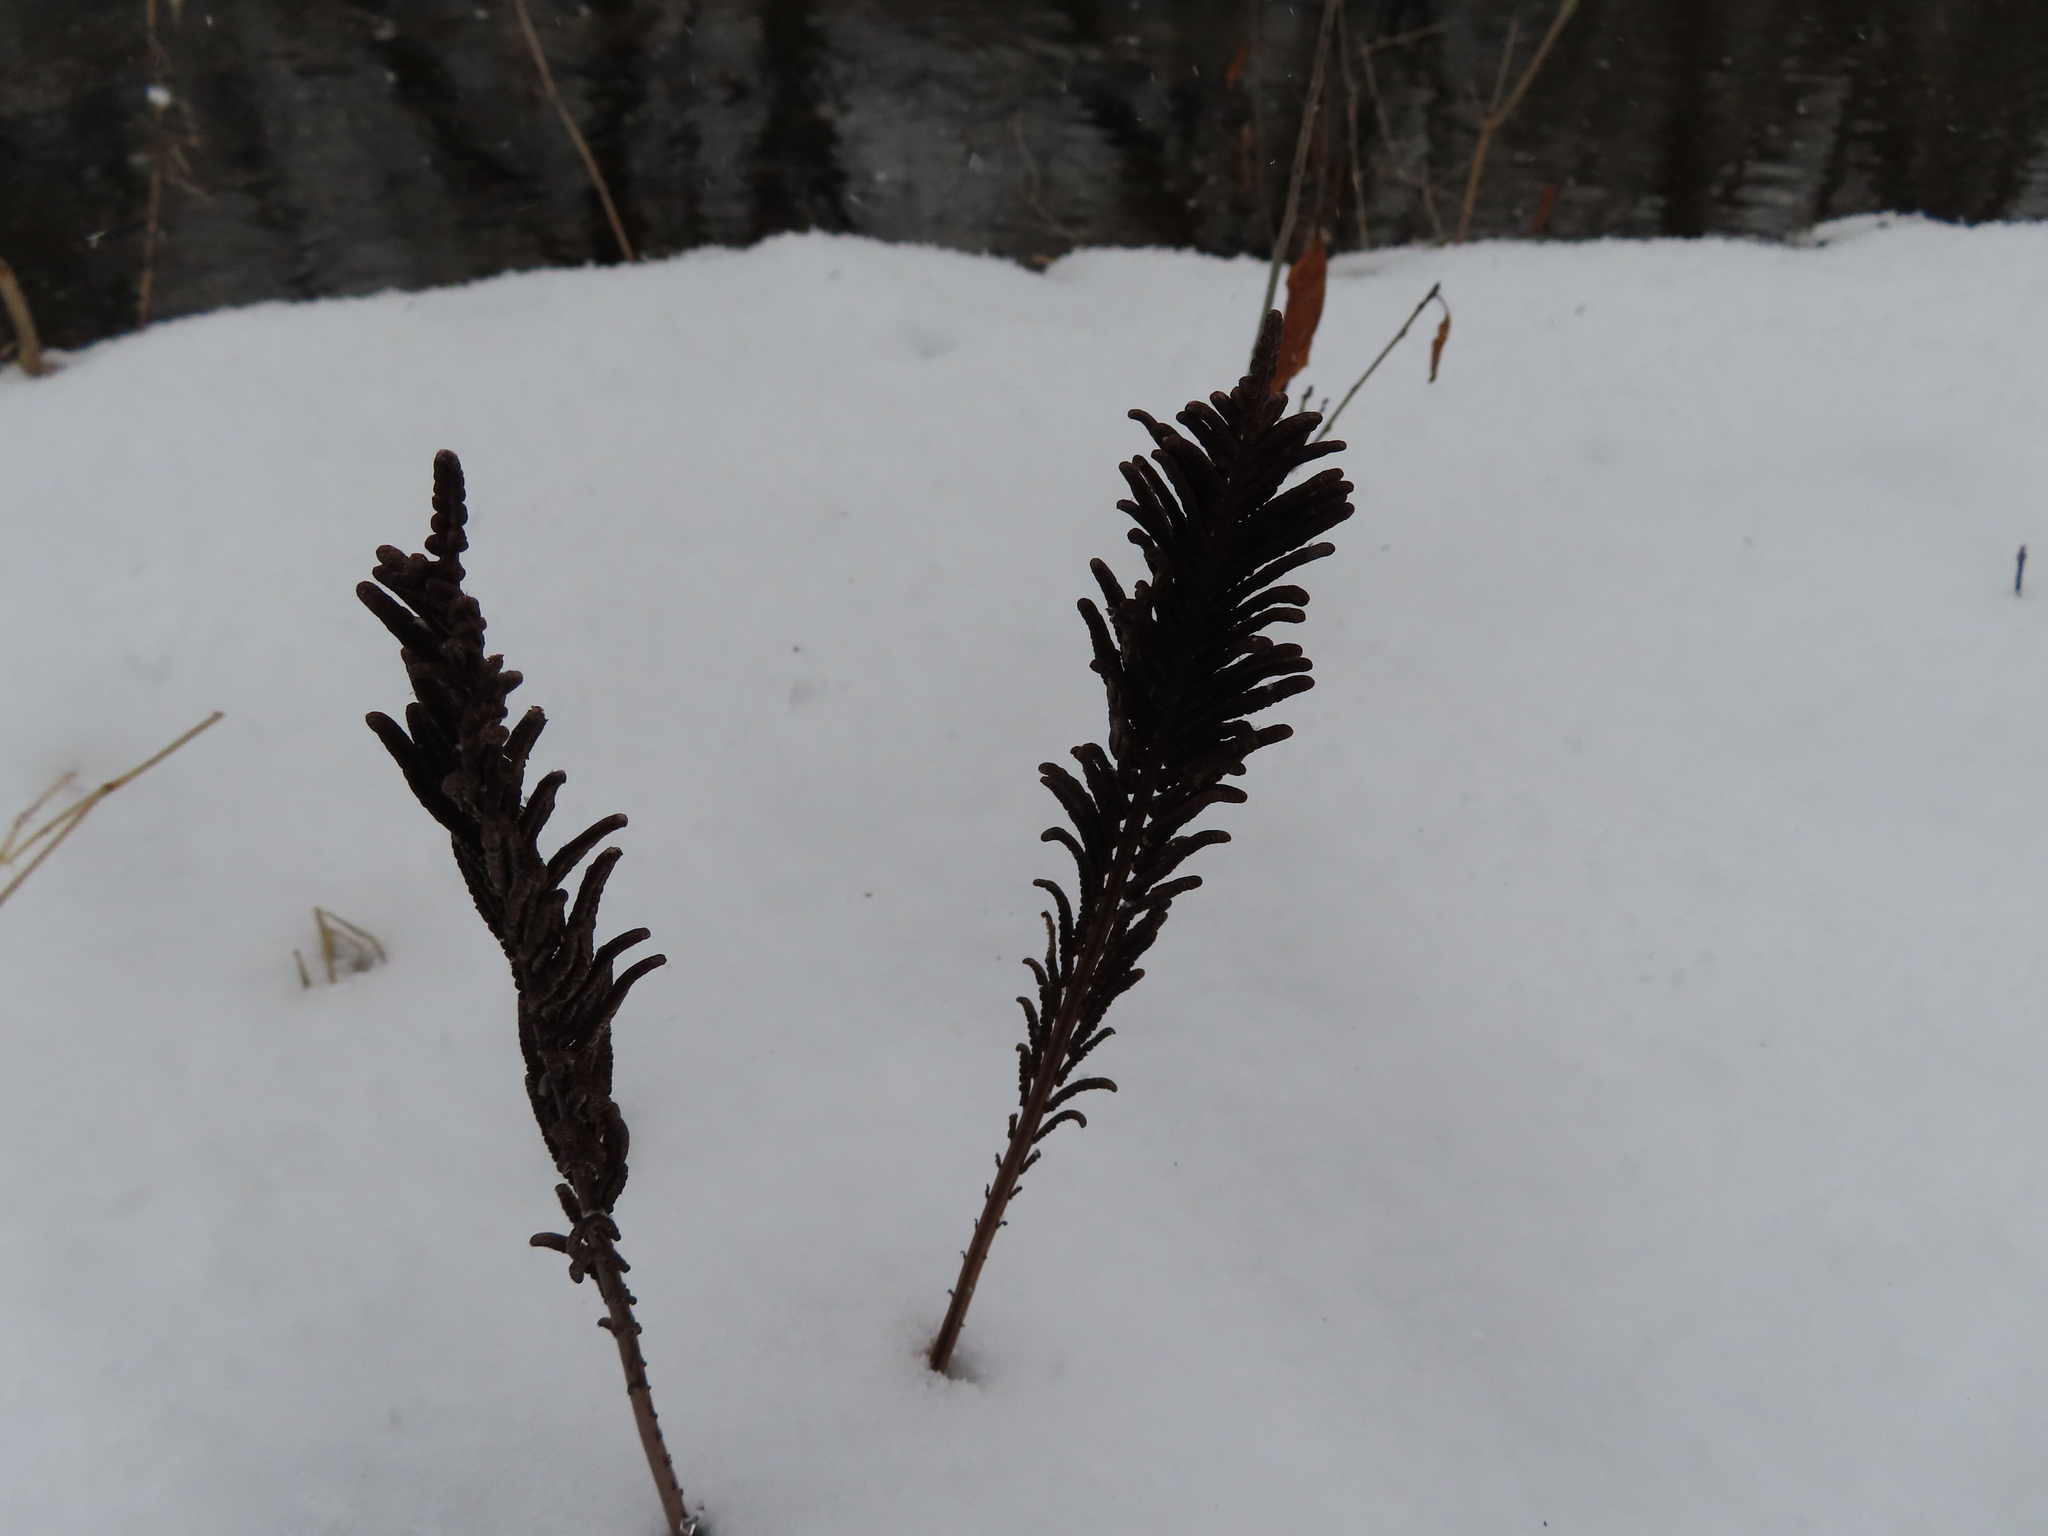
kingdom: Plantae
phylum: Tracheophyta
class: Polypodiopsida
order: Polypodiales
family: Onocleaceae
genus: Matteuccia
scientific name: Matteuccia struthiopteris
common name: Ostrich fern
